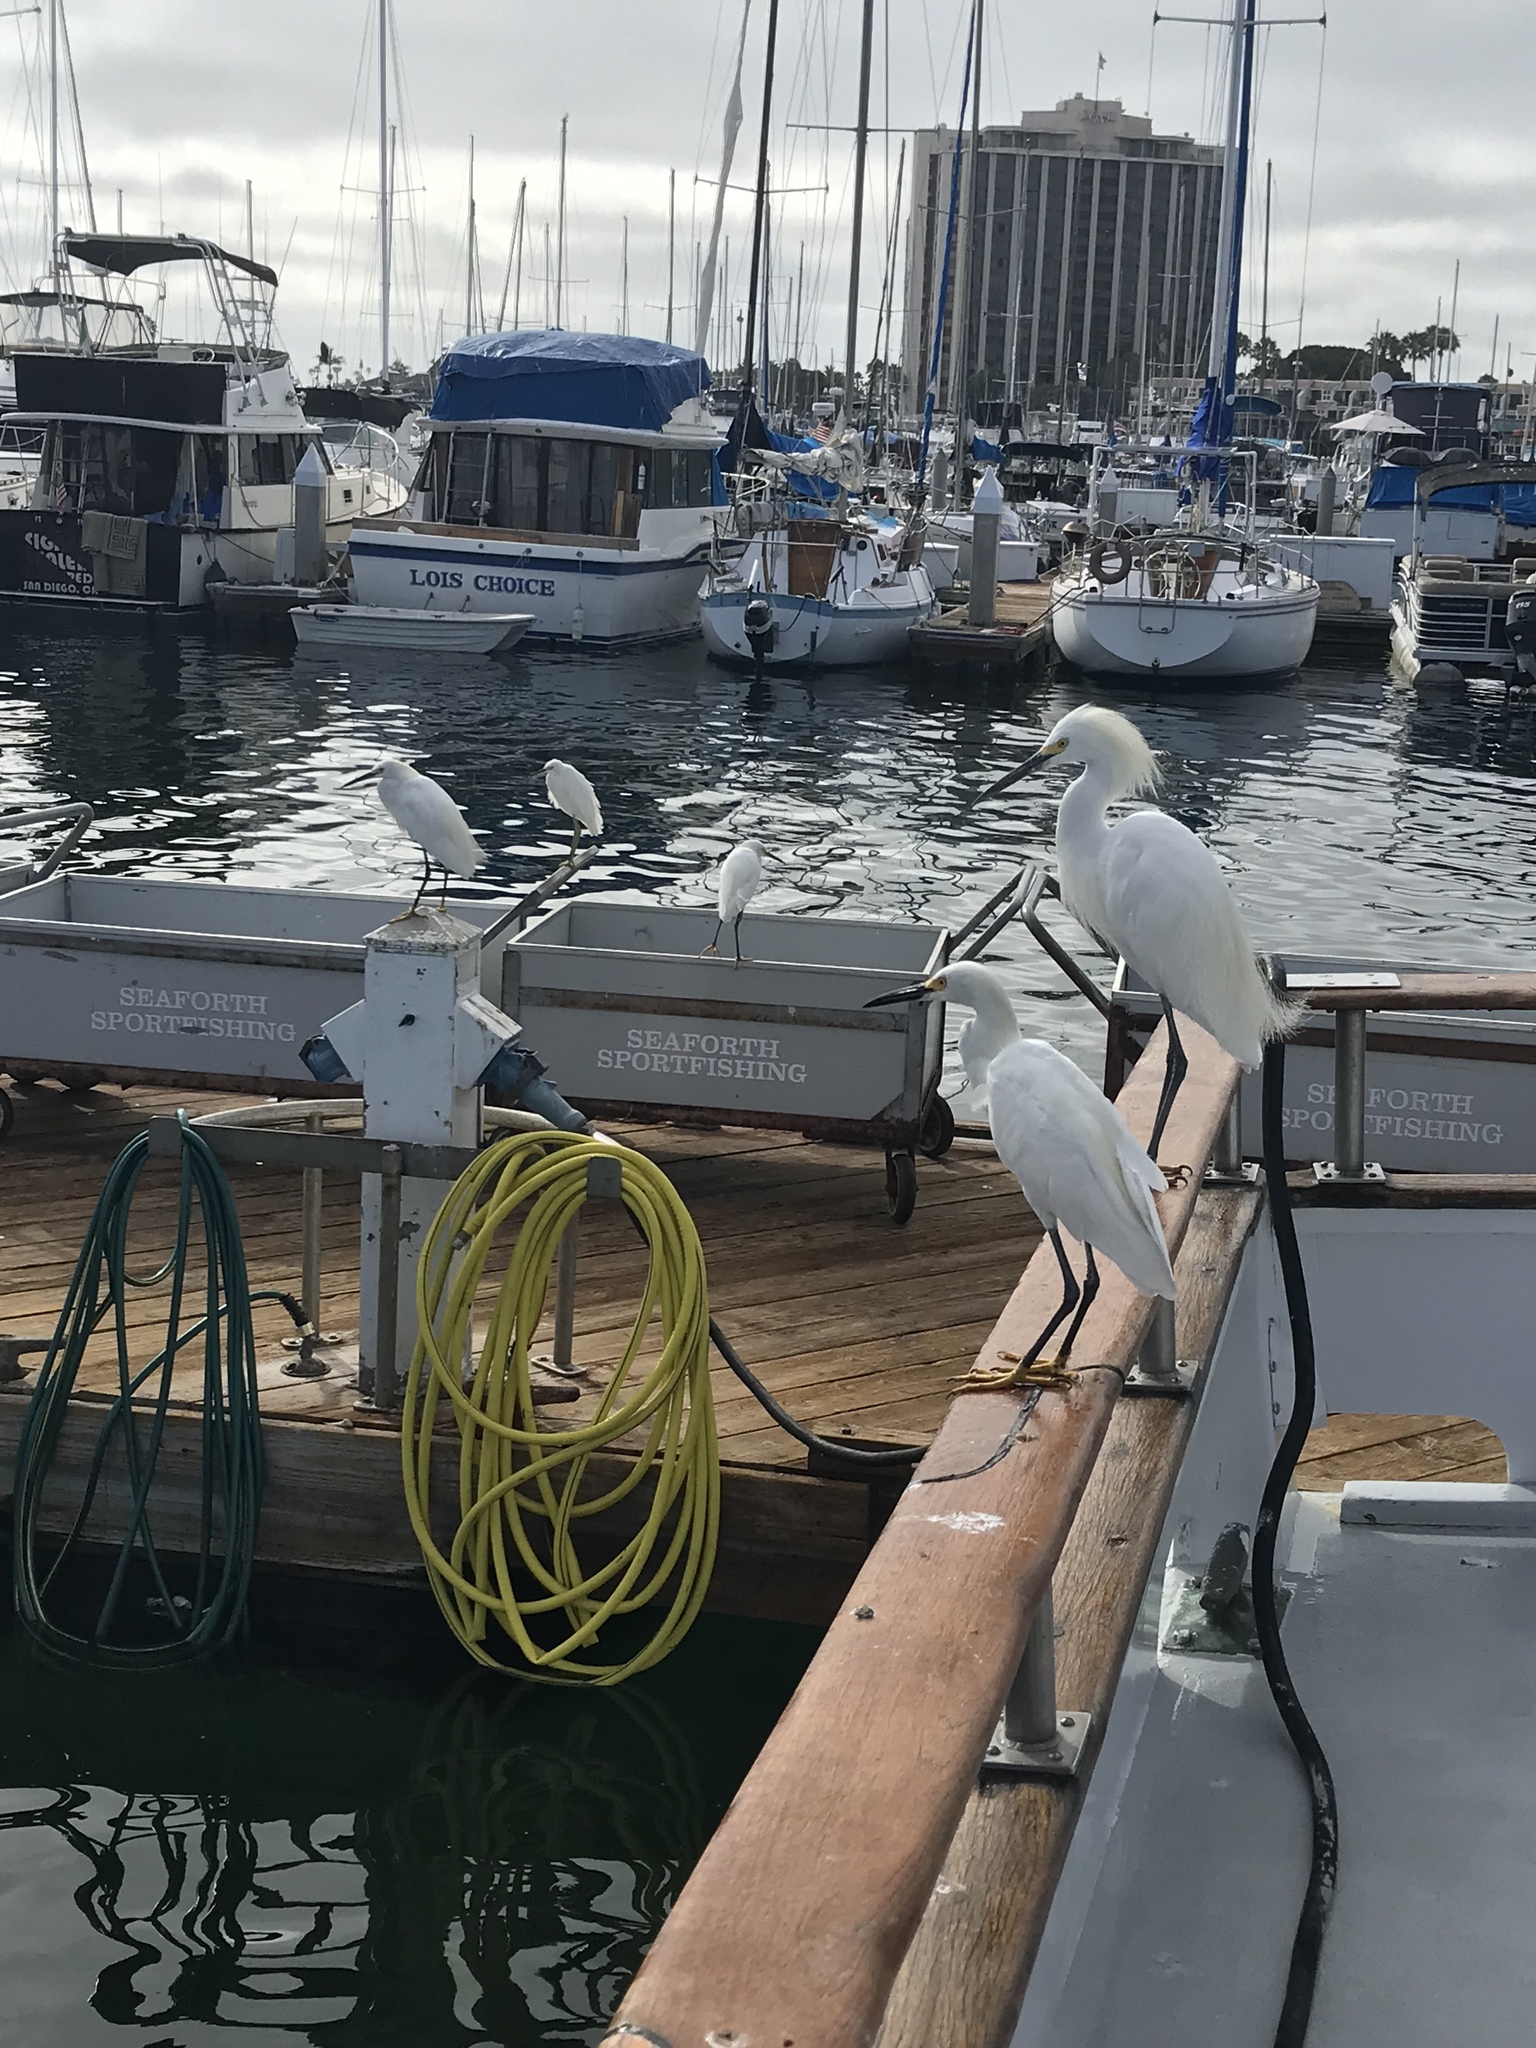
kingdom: Animalia
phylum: Chordata
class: Aves
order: Pelecaniformes
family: Ardeidae
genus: Egretta
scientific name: Egretta thula
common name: Snowy egret
